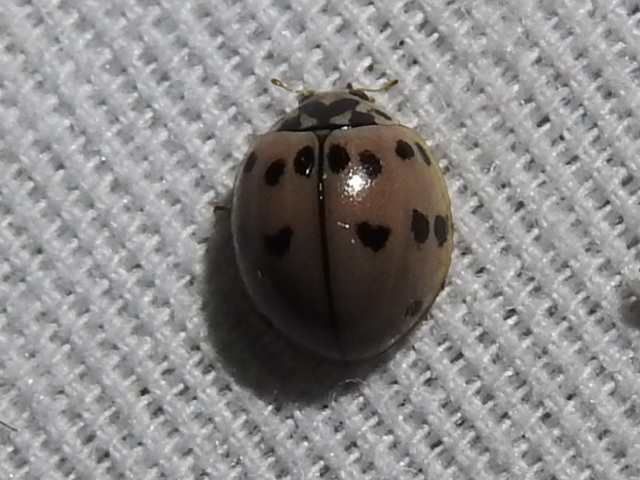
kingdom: Animalia
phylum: Arthropoda
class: Insecta
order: Coleoptera
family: Coccinellidae
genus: Olla
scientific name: Olla v-nigrum
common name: Ashy gray lady beetle
